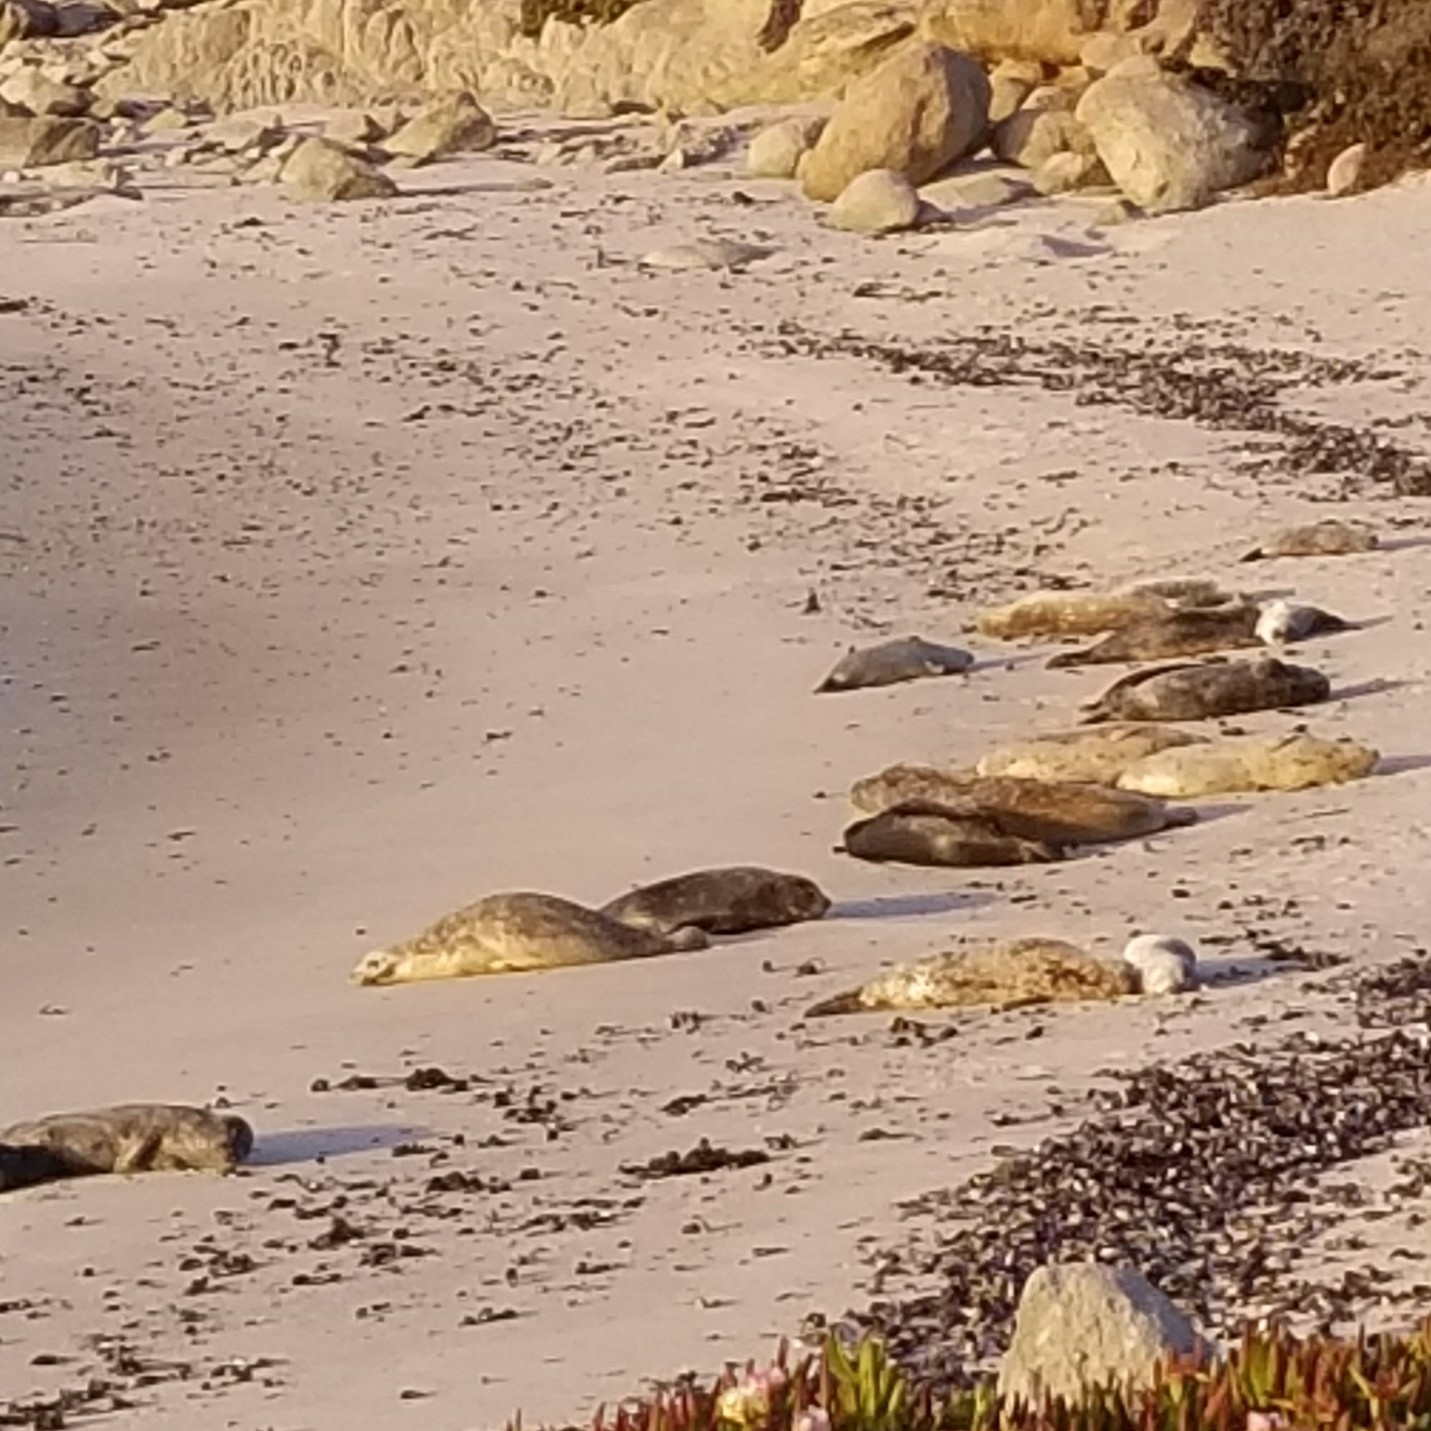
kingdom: Animalia
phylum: Chordata
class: Mammalia
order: Carnivora
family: Phocidae
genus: Phoca
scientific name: Phoca vitulina
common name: Harbor seal
